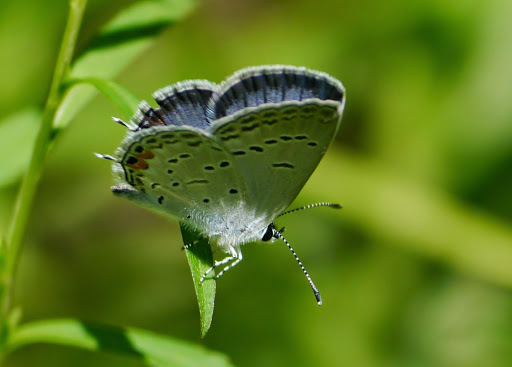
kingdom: Animalia
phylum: Arthropoda
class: Insecta
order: Lepidoptera
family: Lycaenidae
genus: Elkalyce
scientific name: Elkalyce comyntas
